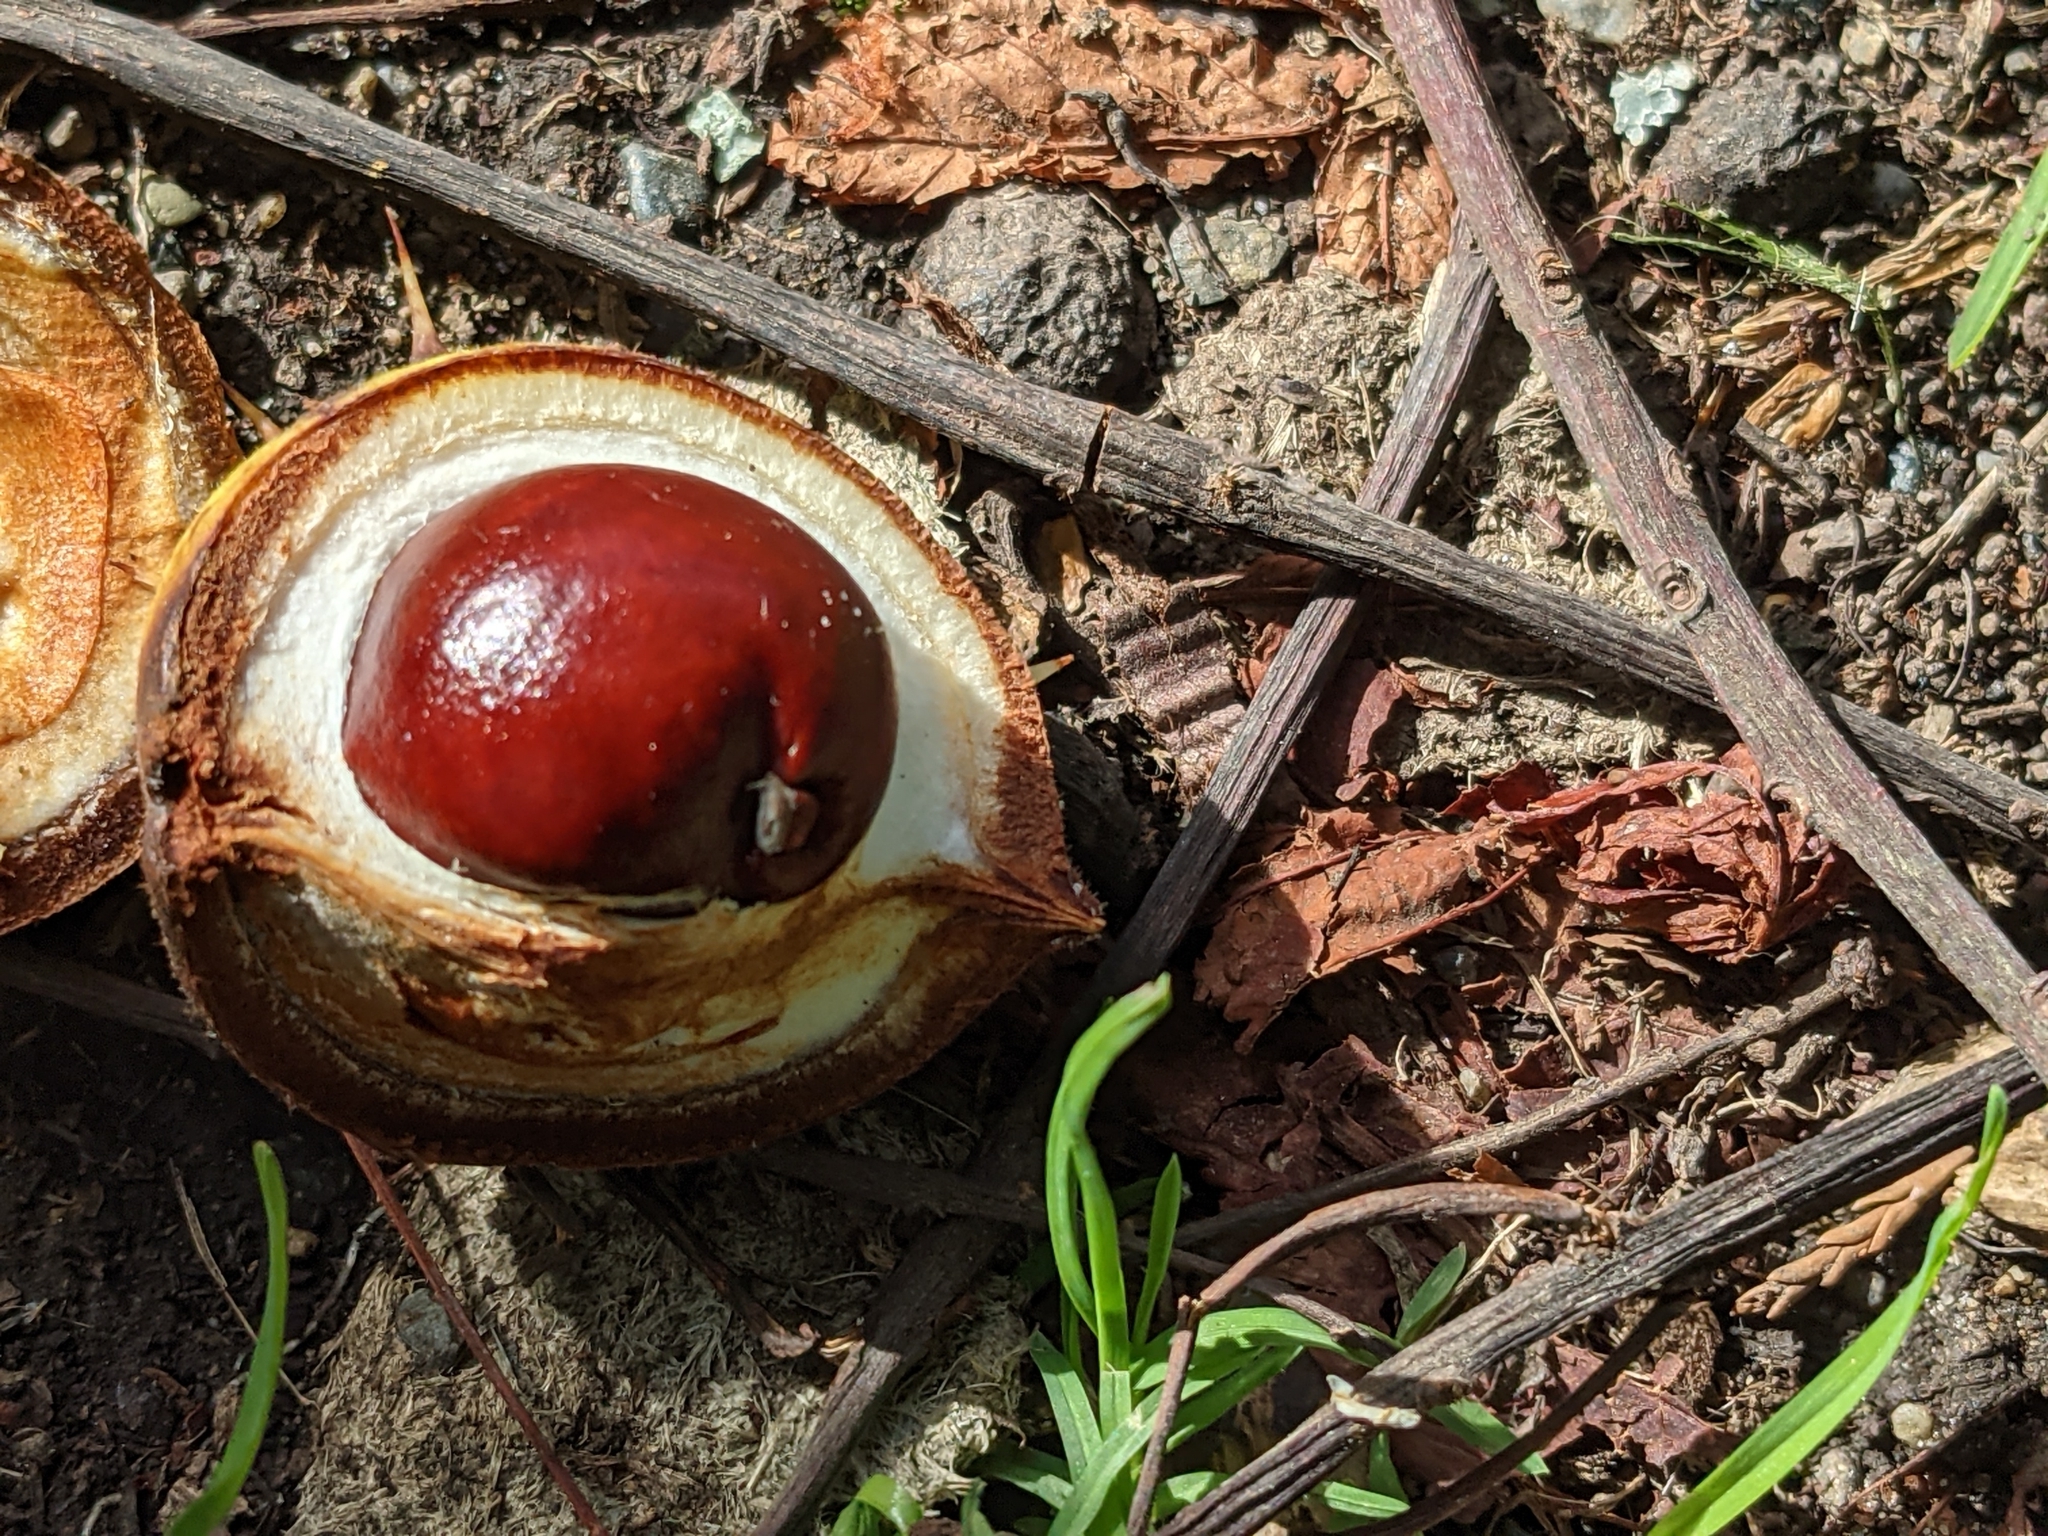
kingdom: Plantae
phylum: Tracheophyta
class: Magnoliopsida
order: Sapindales
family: Sapindaceae
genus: Aesculus
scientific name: Aesculus hippocastanum
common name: Horse-chestnut
